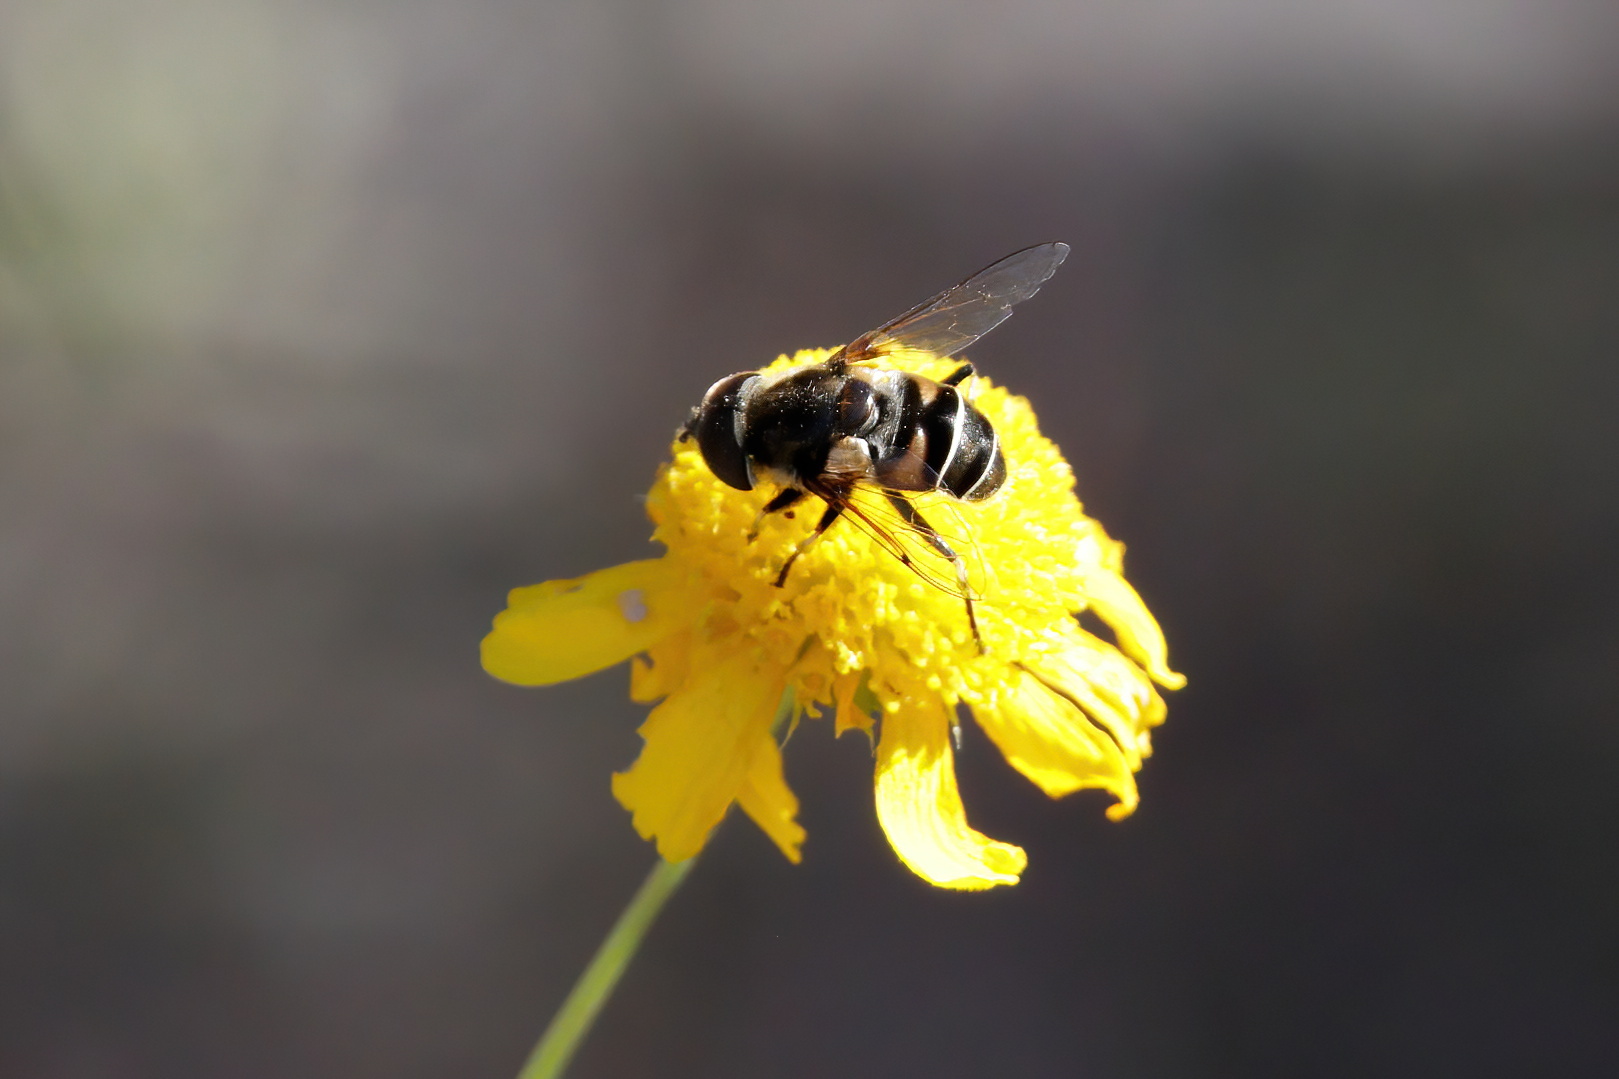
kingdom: Animalia
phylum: Arthropoda
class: Insecta
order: Diptera
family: Syrphidae
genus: Eristalis
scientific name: Eristalis dimidiata
